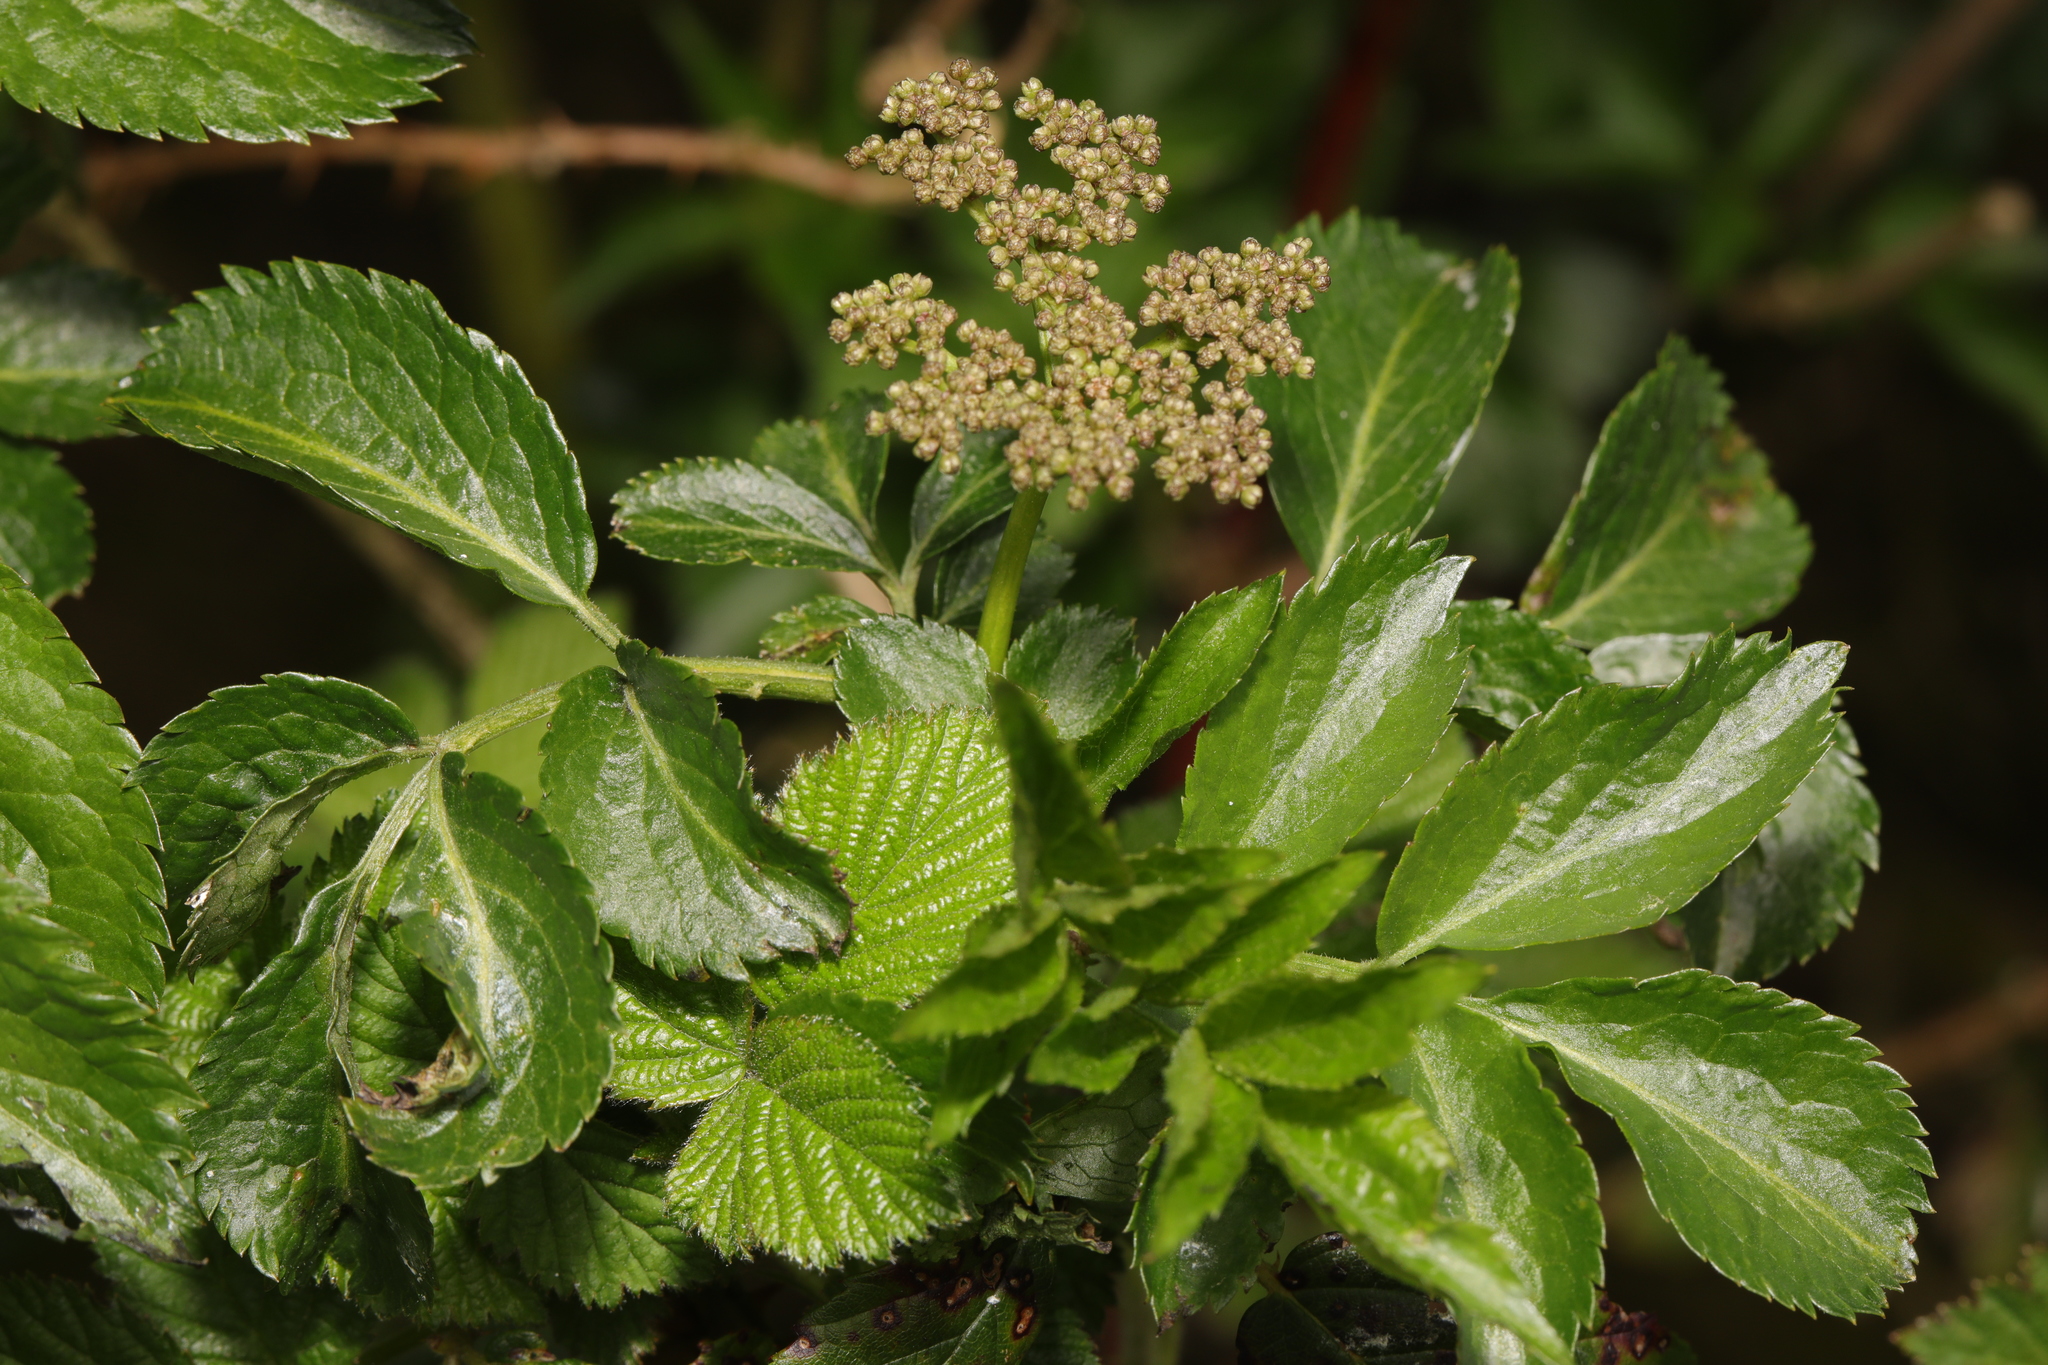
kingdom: Plantae
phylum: Tracheophyta
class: Magnoliopsida
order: Dipsacales
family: Viburnaceae
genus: Sambucus
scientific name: Sambucus nigra
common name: Elder
